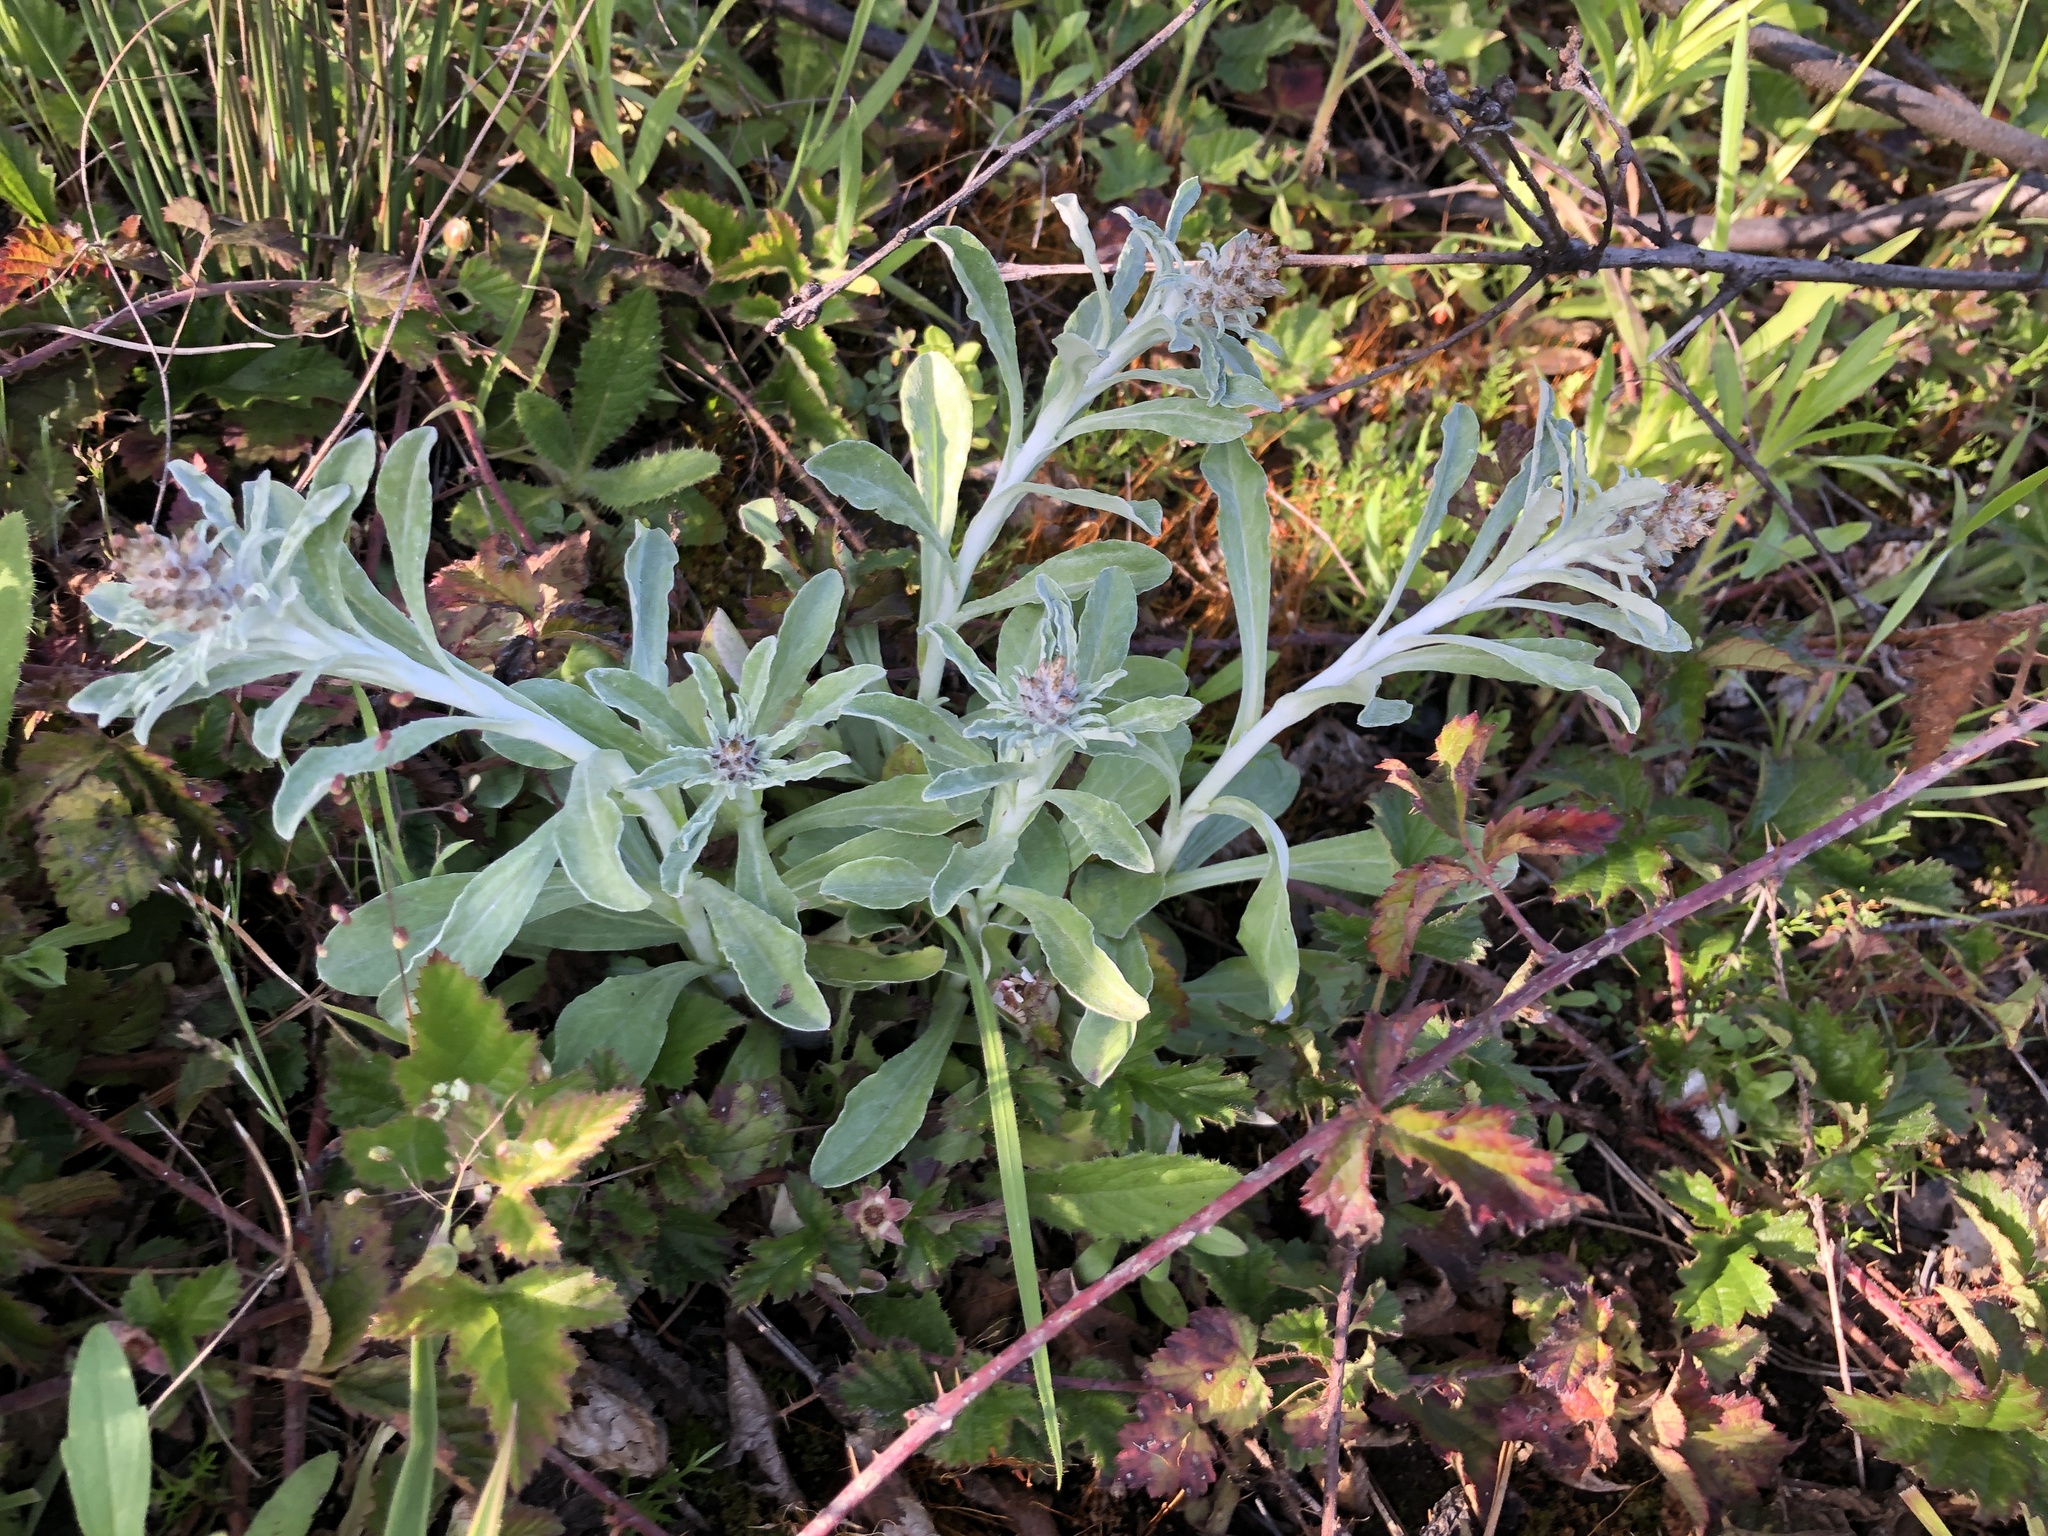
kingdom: Plantae
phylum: Tracheophyta
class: Magnoliopsida
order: Asterales
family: Asteraceae
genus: Gamochaeta
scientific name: Gamochaeta ustulata
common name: Pacific cudweed
